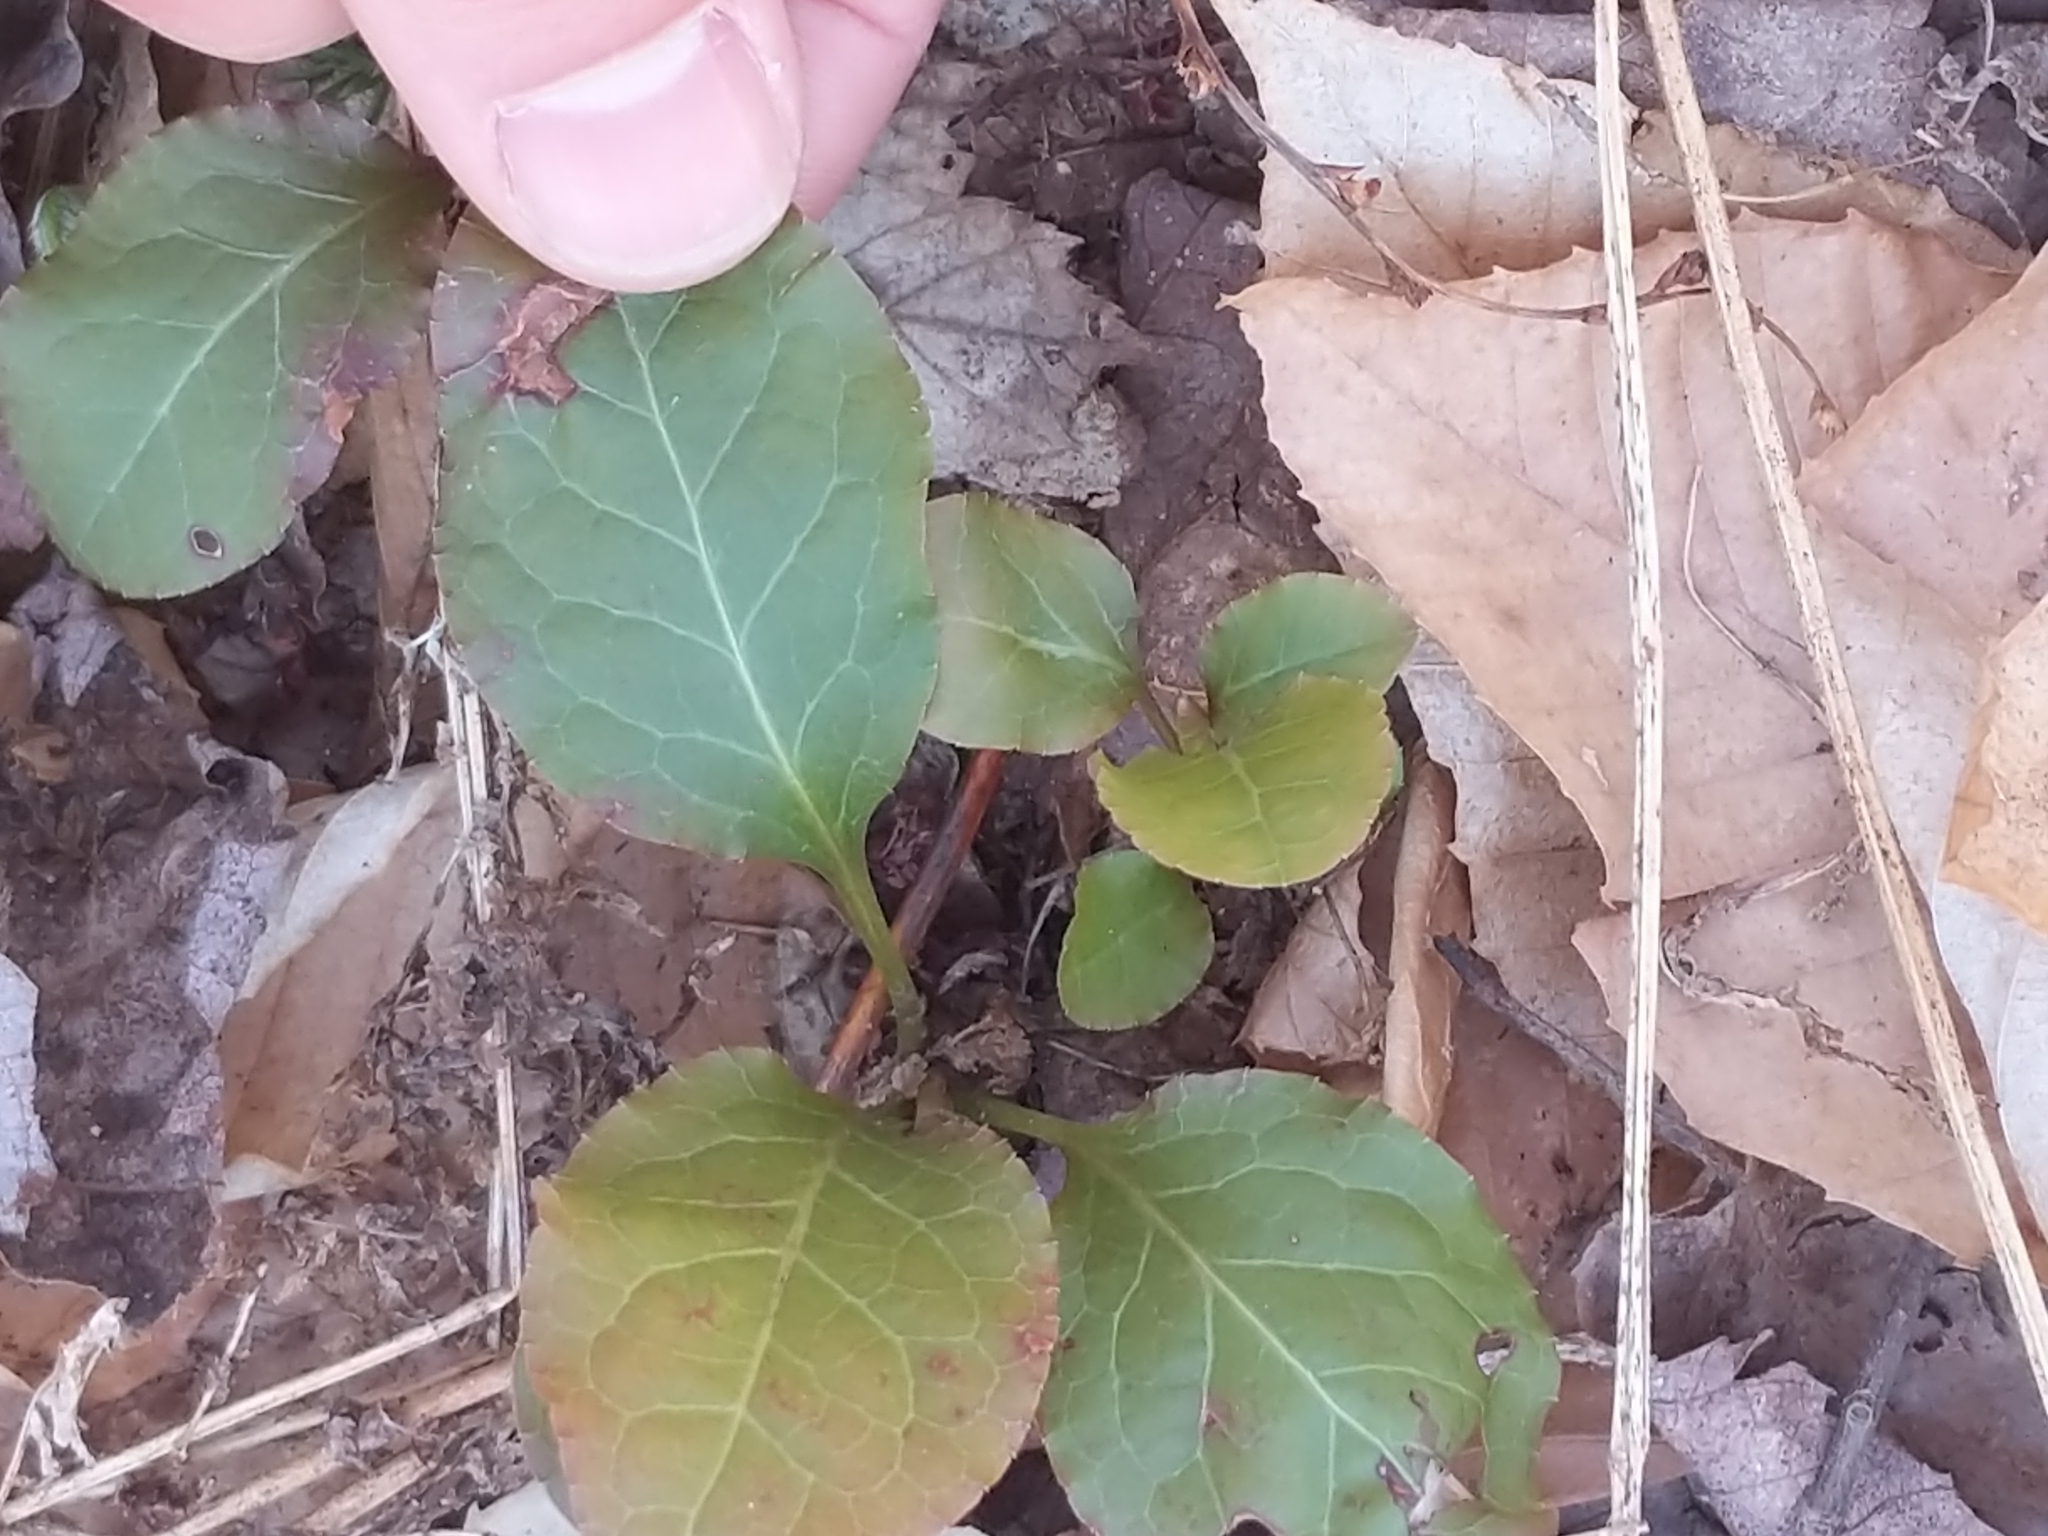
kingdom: Plantae
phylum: Tracheophyta
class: Magnoliopsida
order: Ericales
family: Ericaceae
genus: Pyrola
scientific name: Pyrola elliptica
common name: Shinleaf
